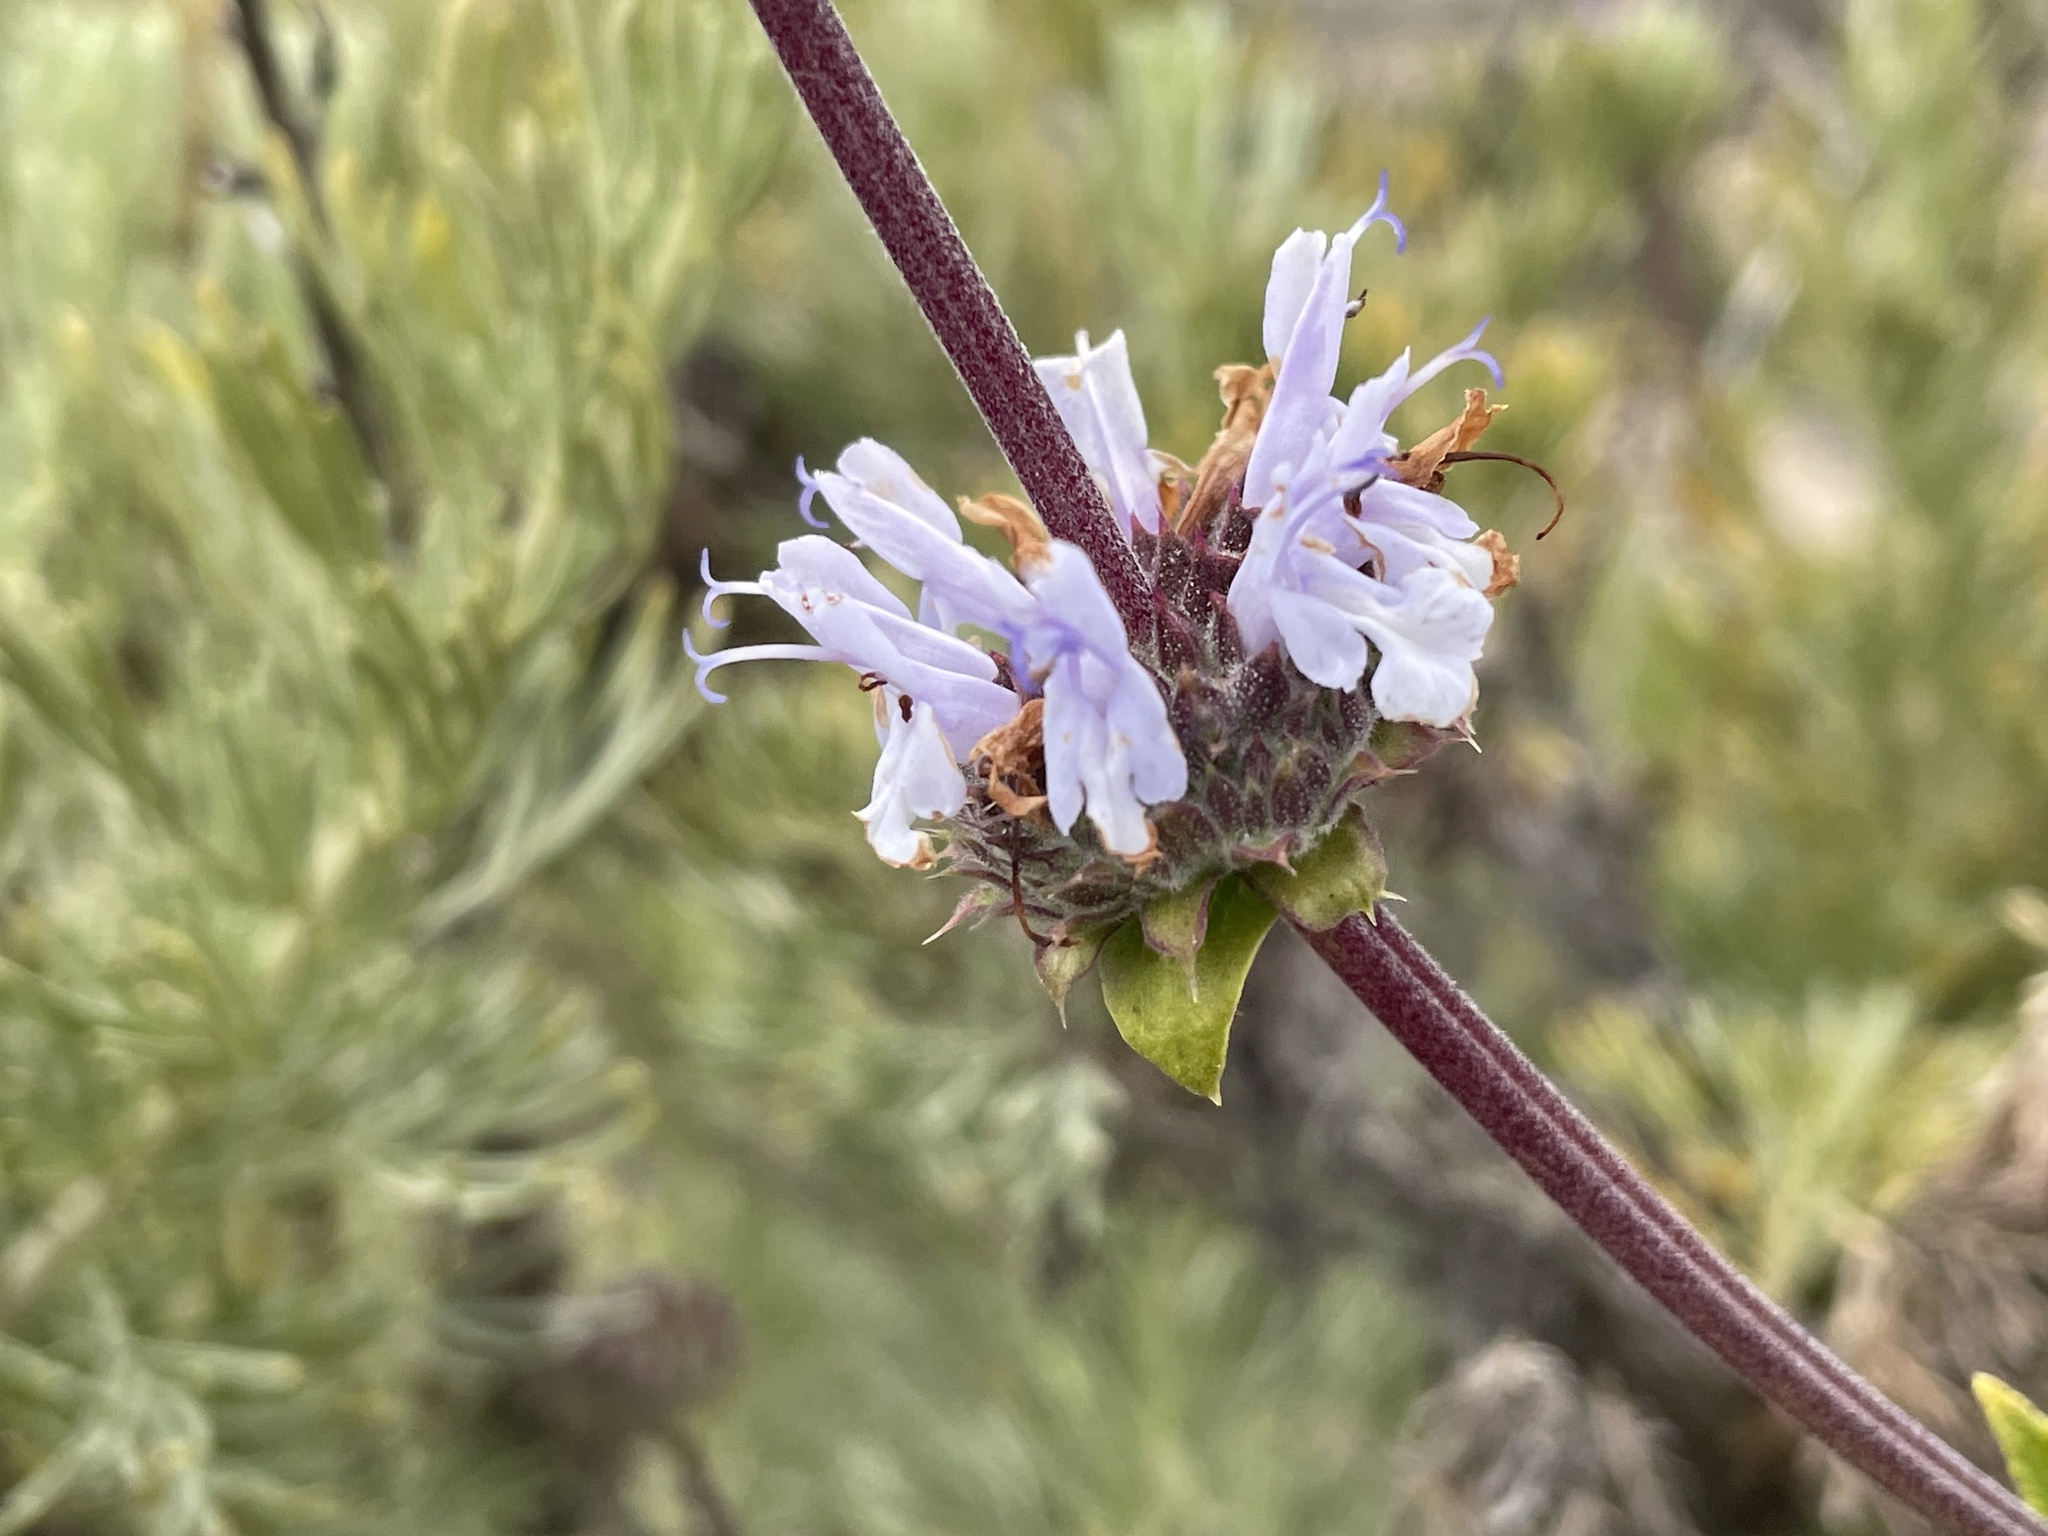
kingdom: Plantae
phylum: Tracheophyta
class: Magnoliopsida
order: Lamiales
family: Lamiaceae
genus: Salvia
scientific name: Salvia mellifera
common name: Black sage
